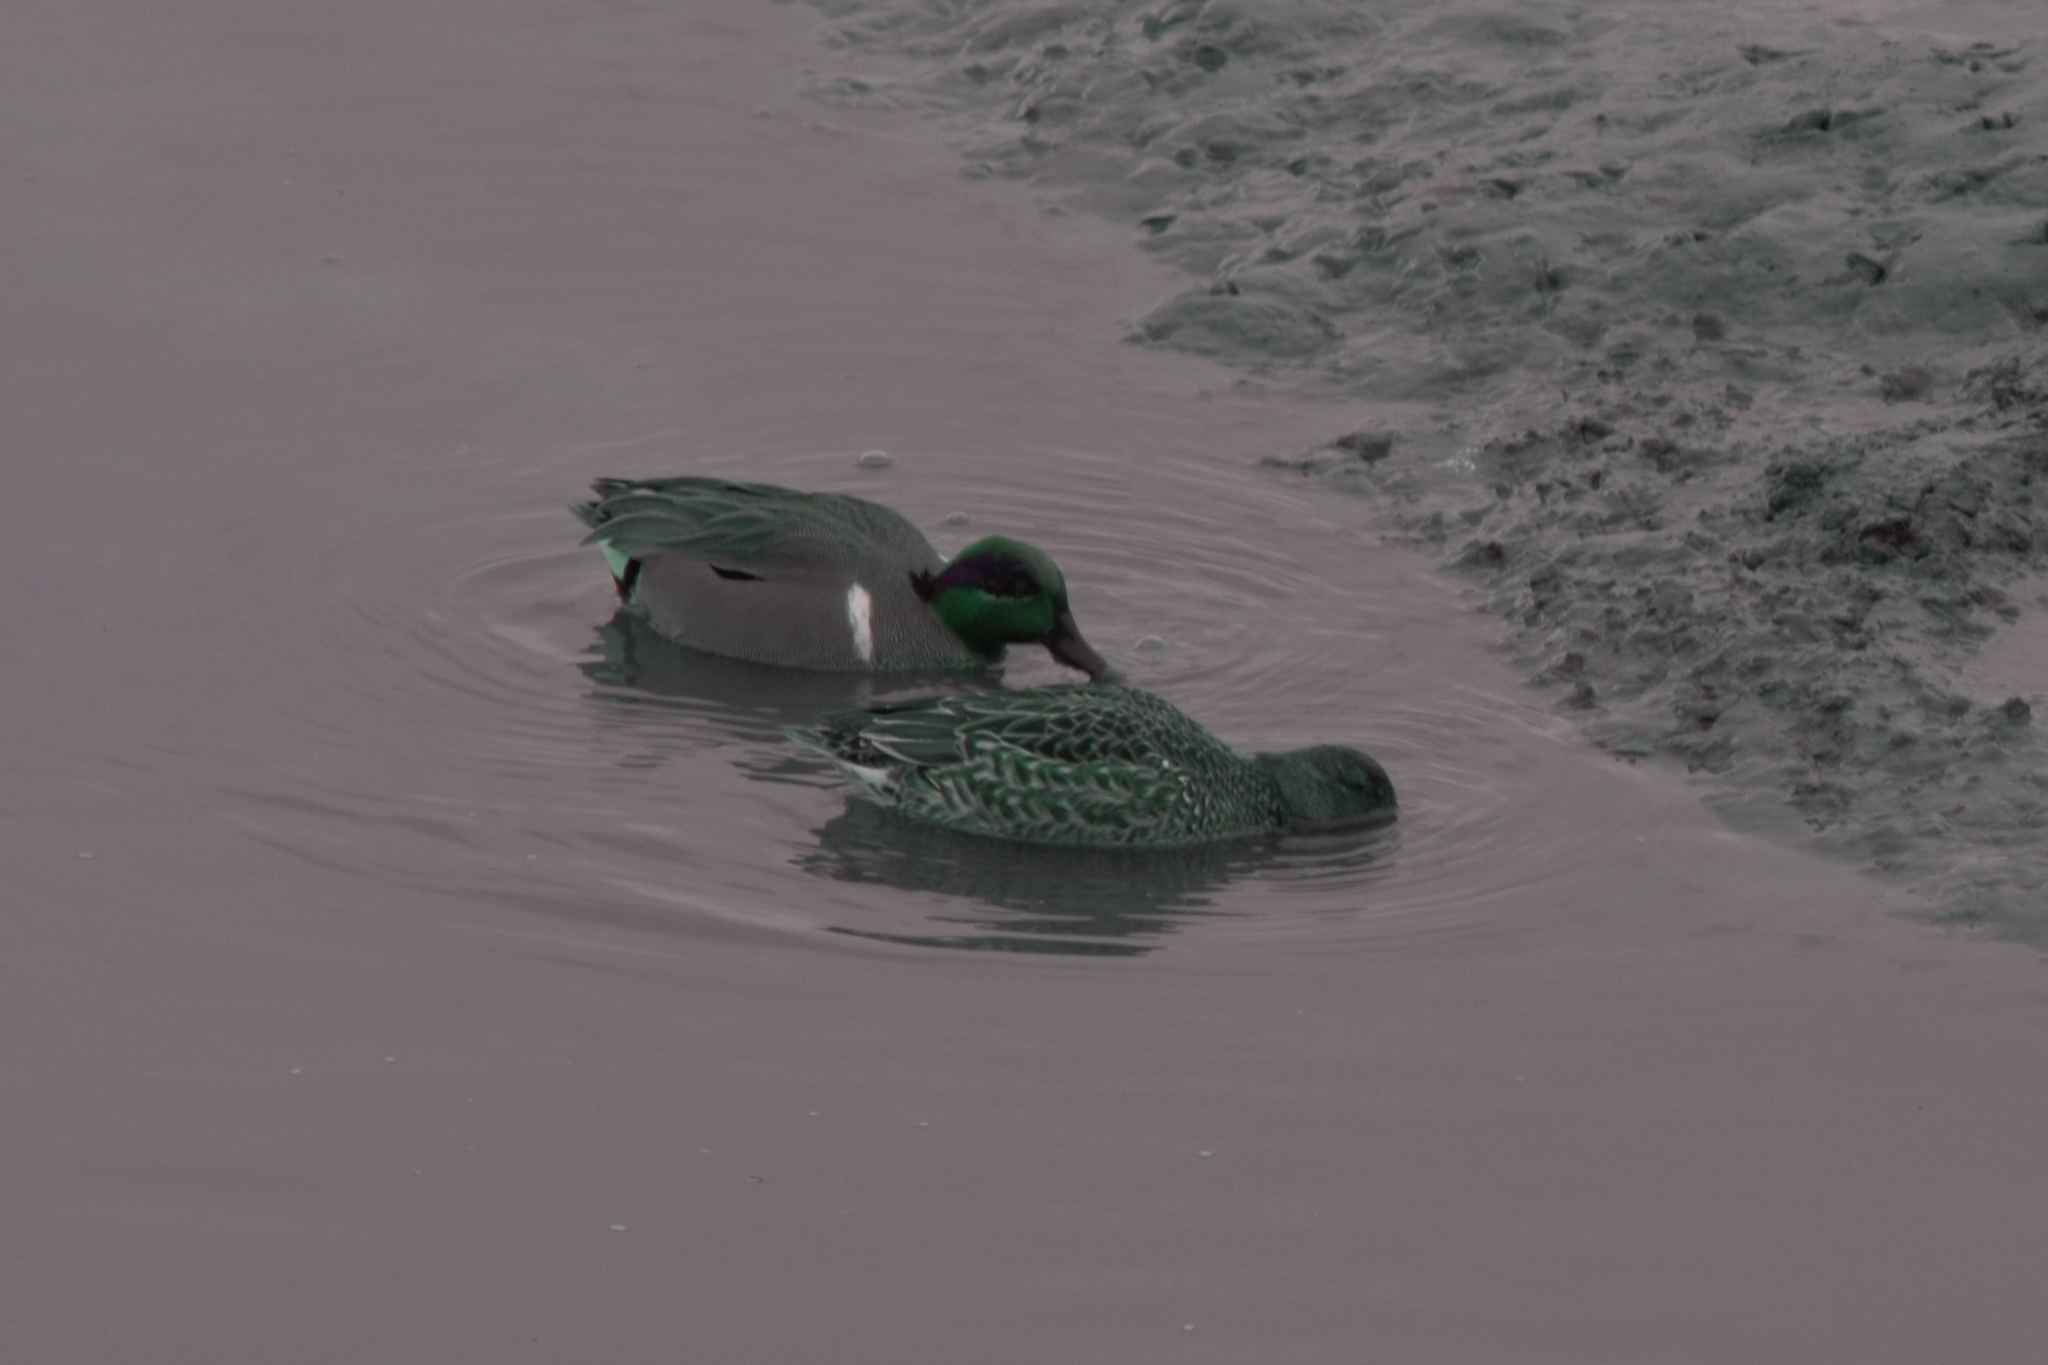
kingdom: Animalia
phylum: Chordata
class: Aves
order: Anseriformes
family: Anatidae
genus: Anas
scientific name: Anas crecca
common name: Eurasian teal
